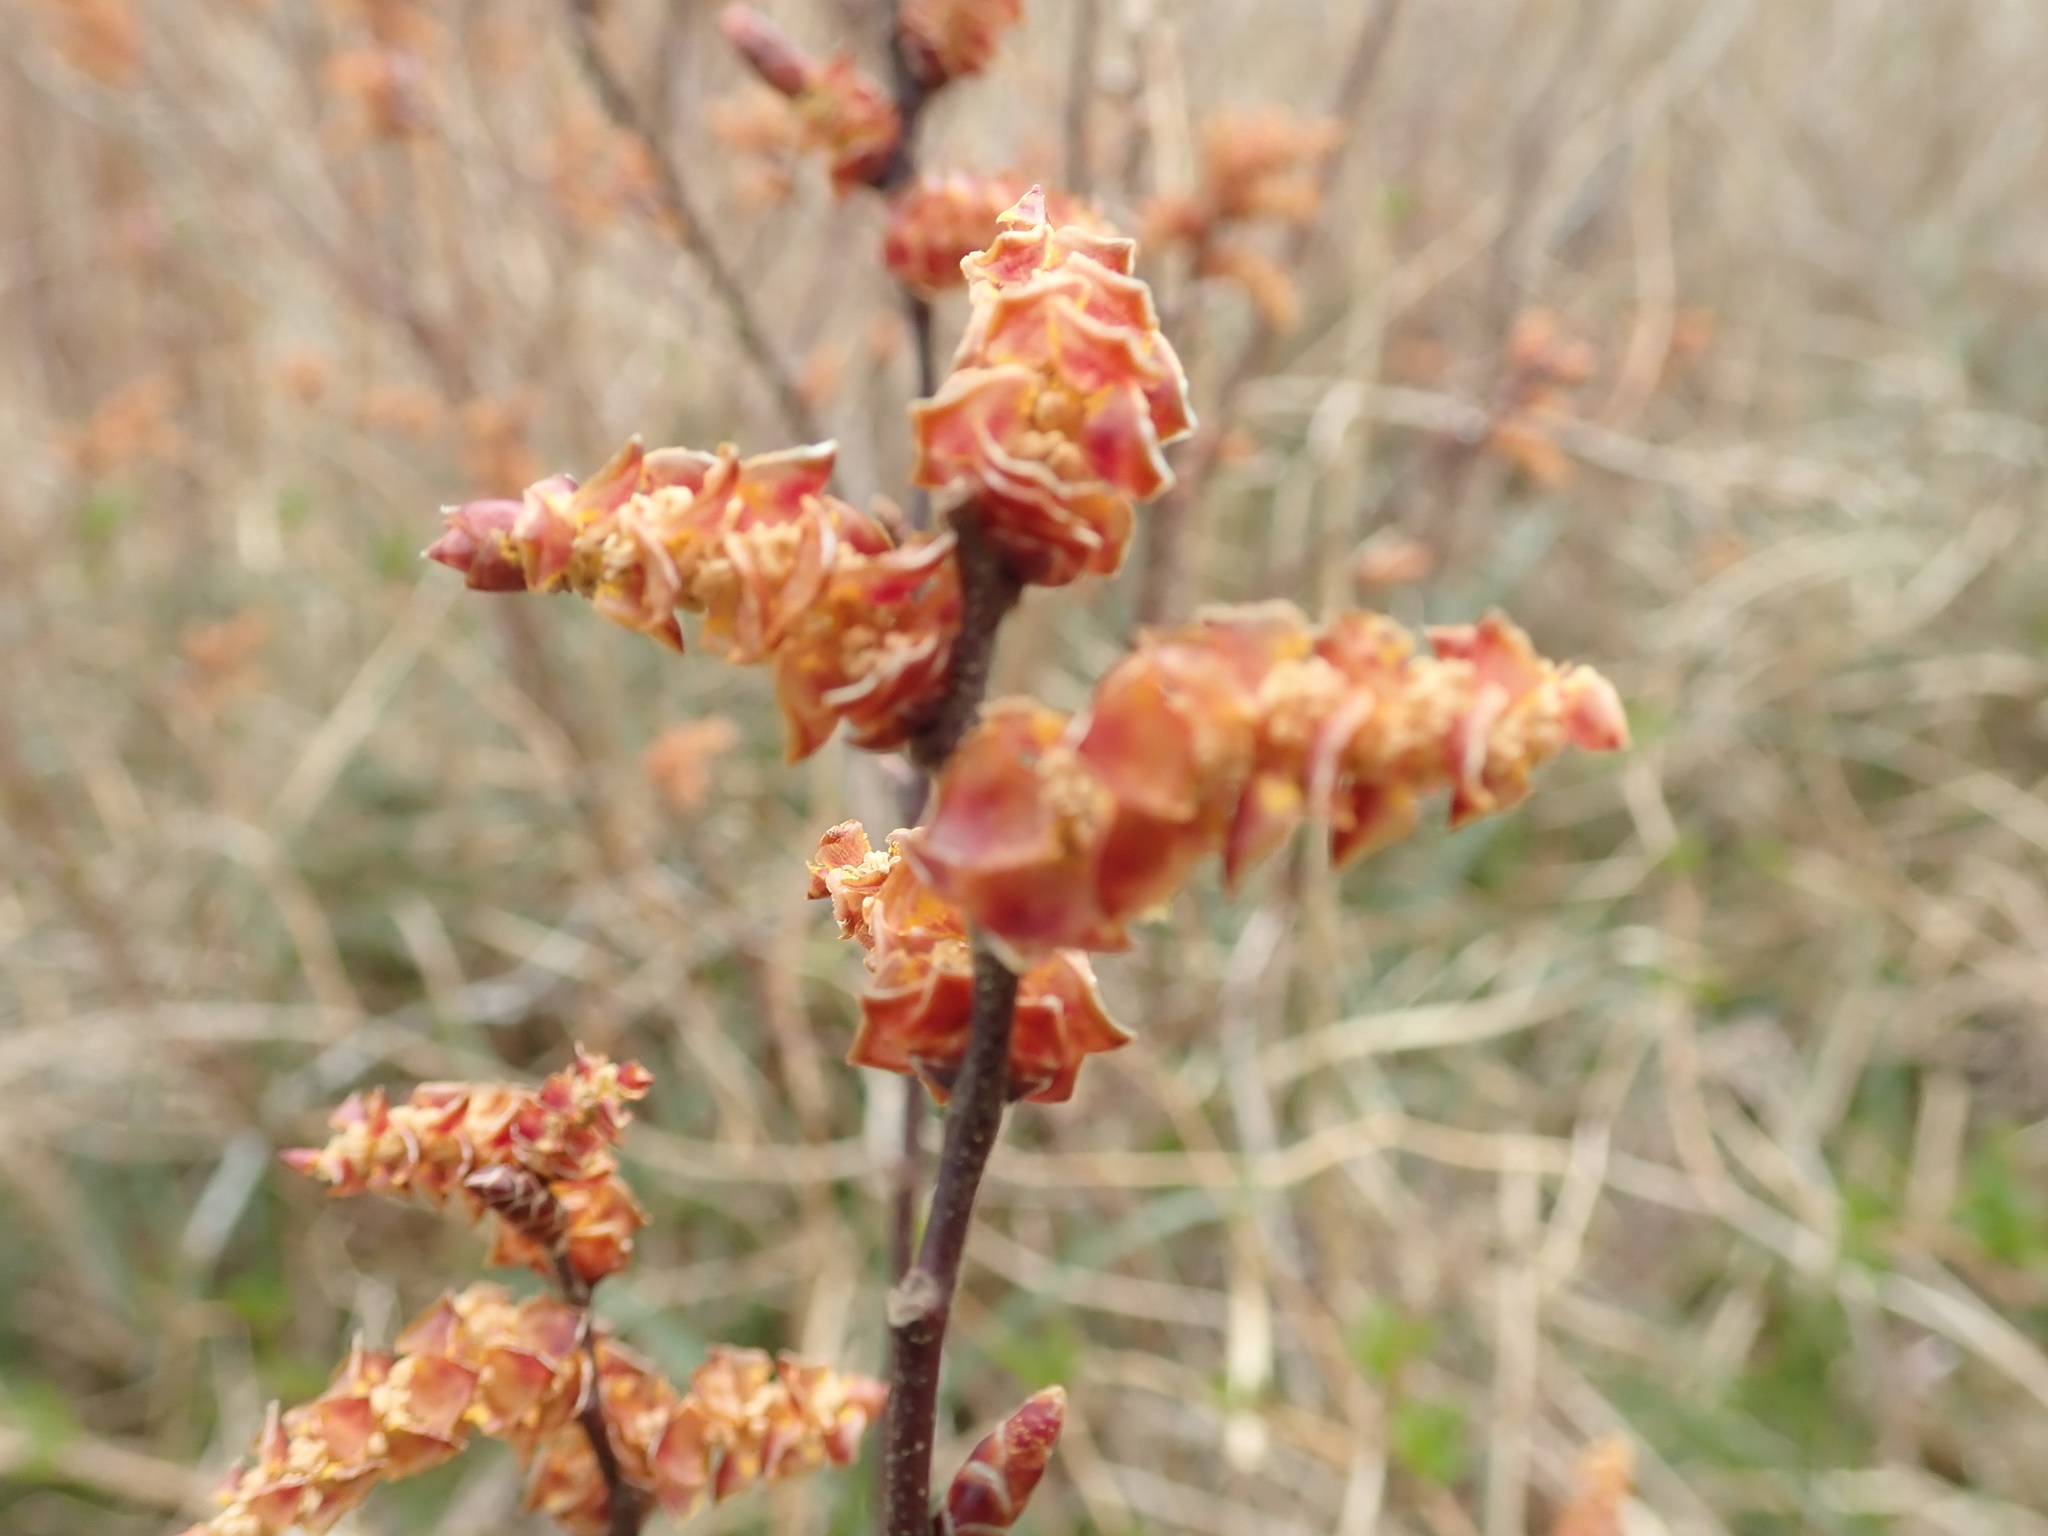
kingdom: Plantae
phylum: Tracheophyta
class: Magnoliopsida
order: Fagales
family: Myricaceae
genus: Myrica
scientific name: Myrica gale
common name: Sweet gale
